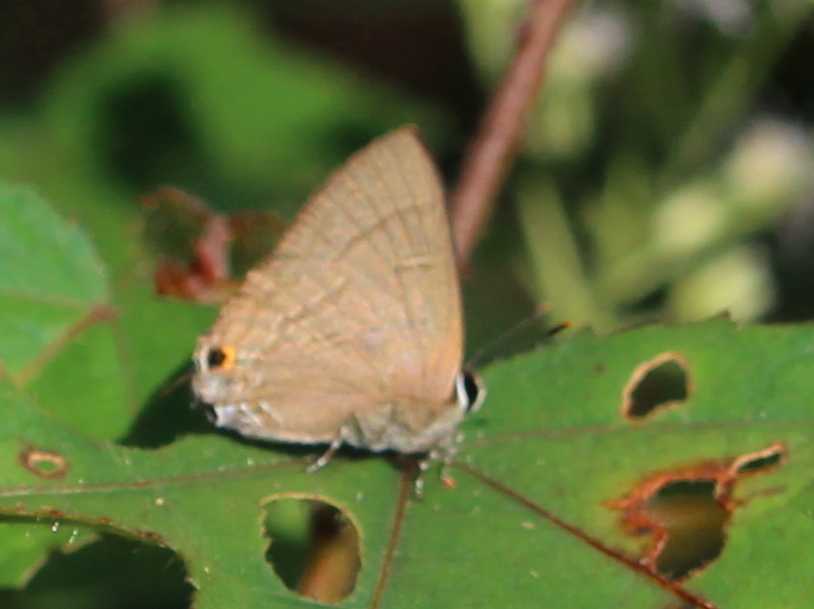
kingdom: Animalia
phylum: Arthropoda
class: Insecta
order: Lepidoptera
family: Lycaenidae
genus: Rapala
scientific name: Rapala manea
